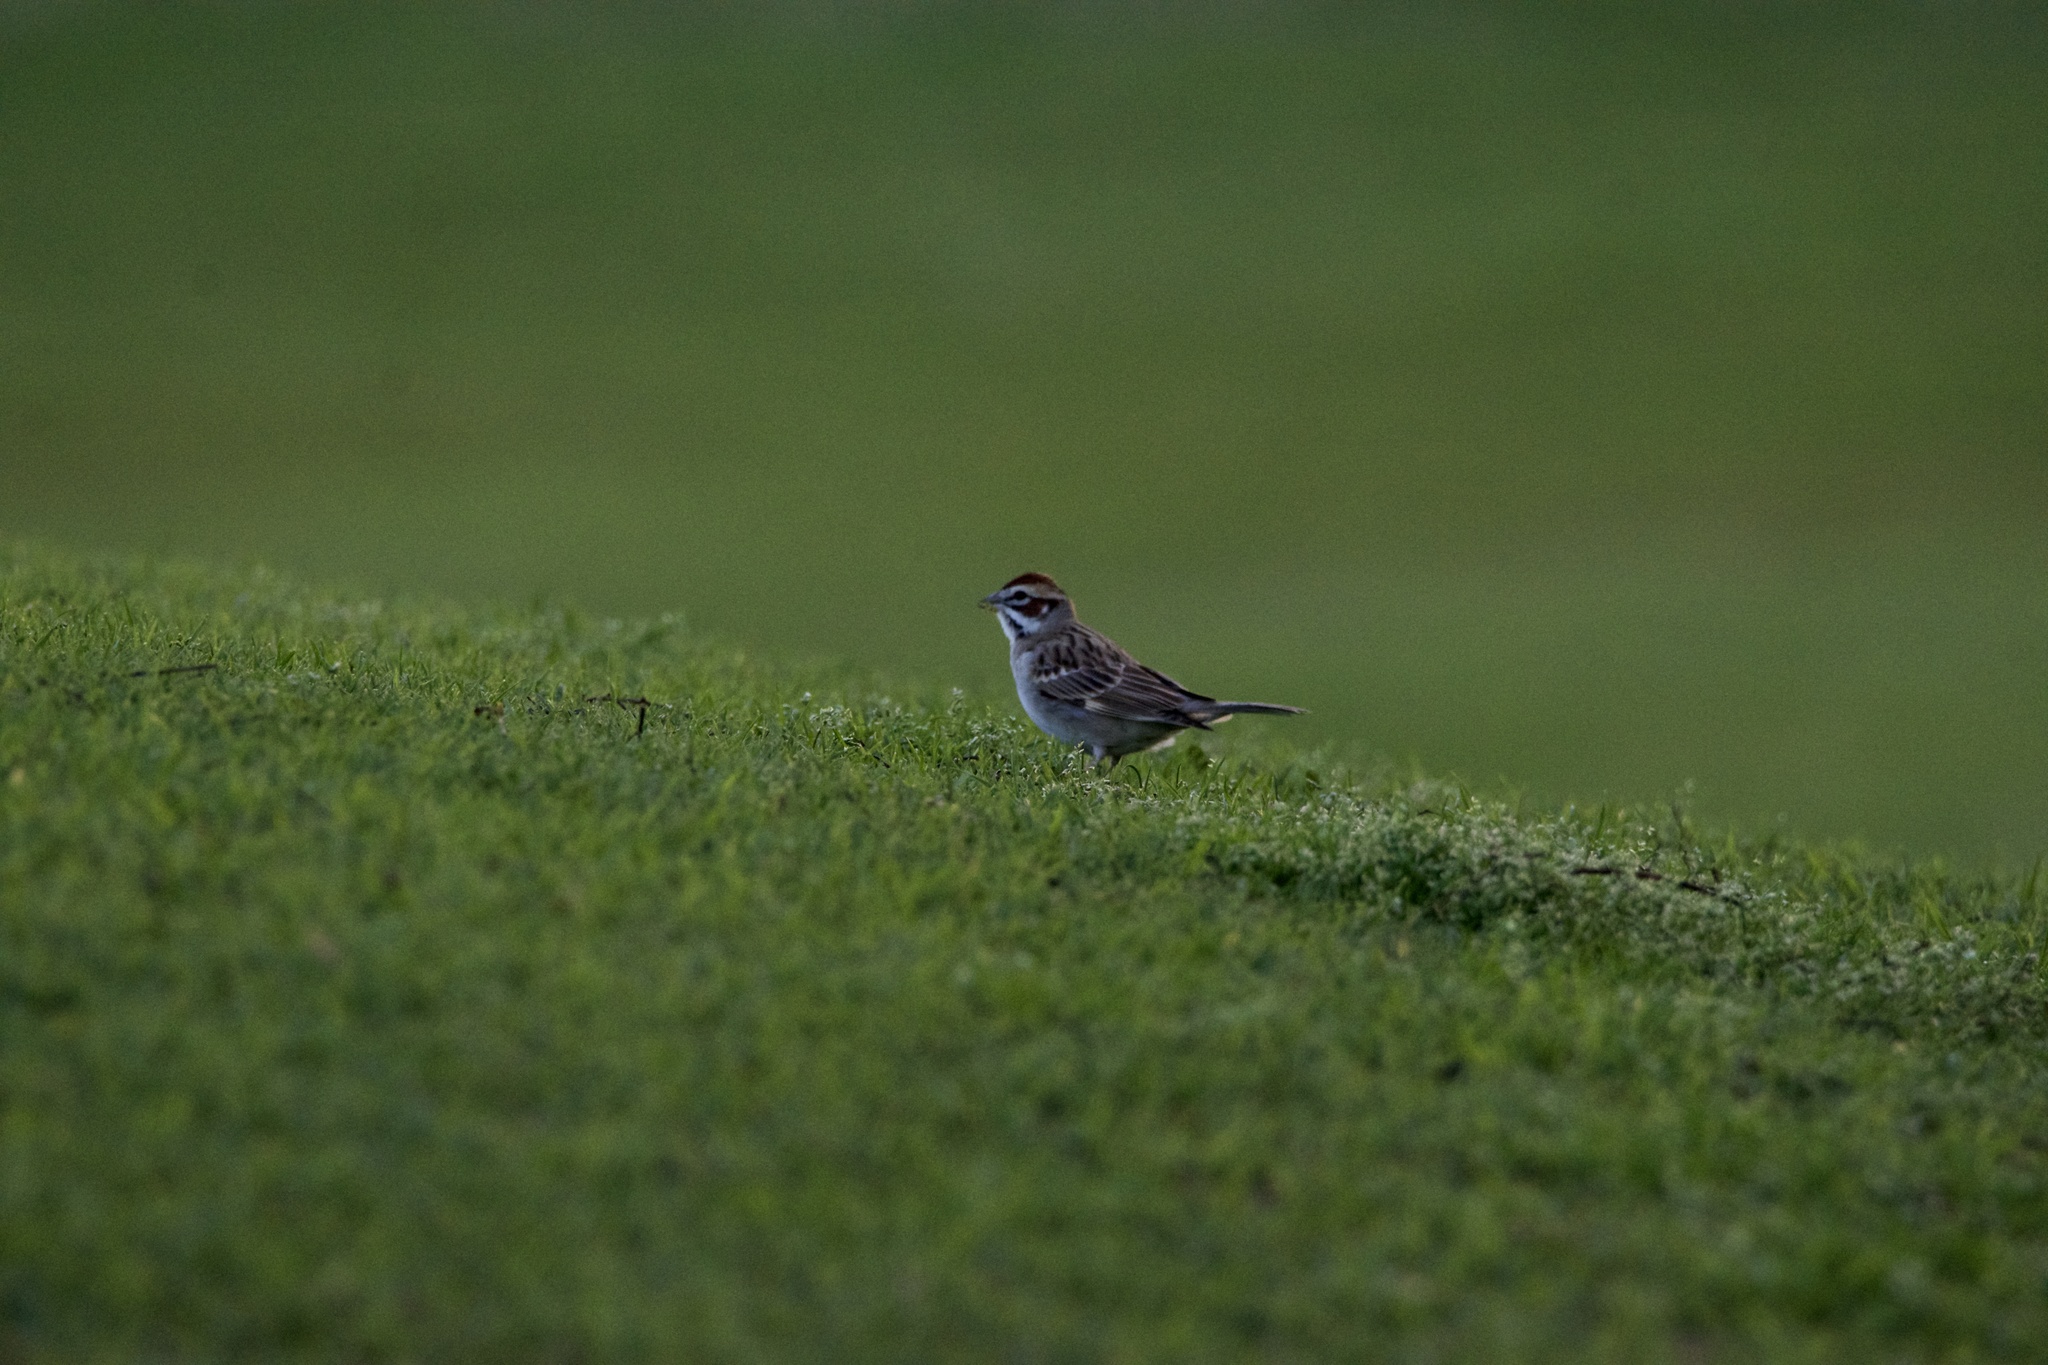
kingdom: Animalia
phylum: Chordata
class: Aves
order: Passeriformes
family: Passerellidae
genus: Chondestes
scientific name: Chondestes grammacus
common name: Lark sparrow
